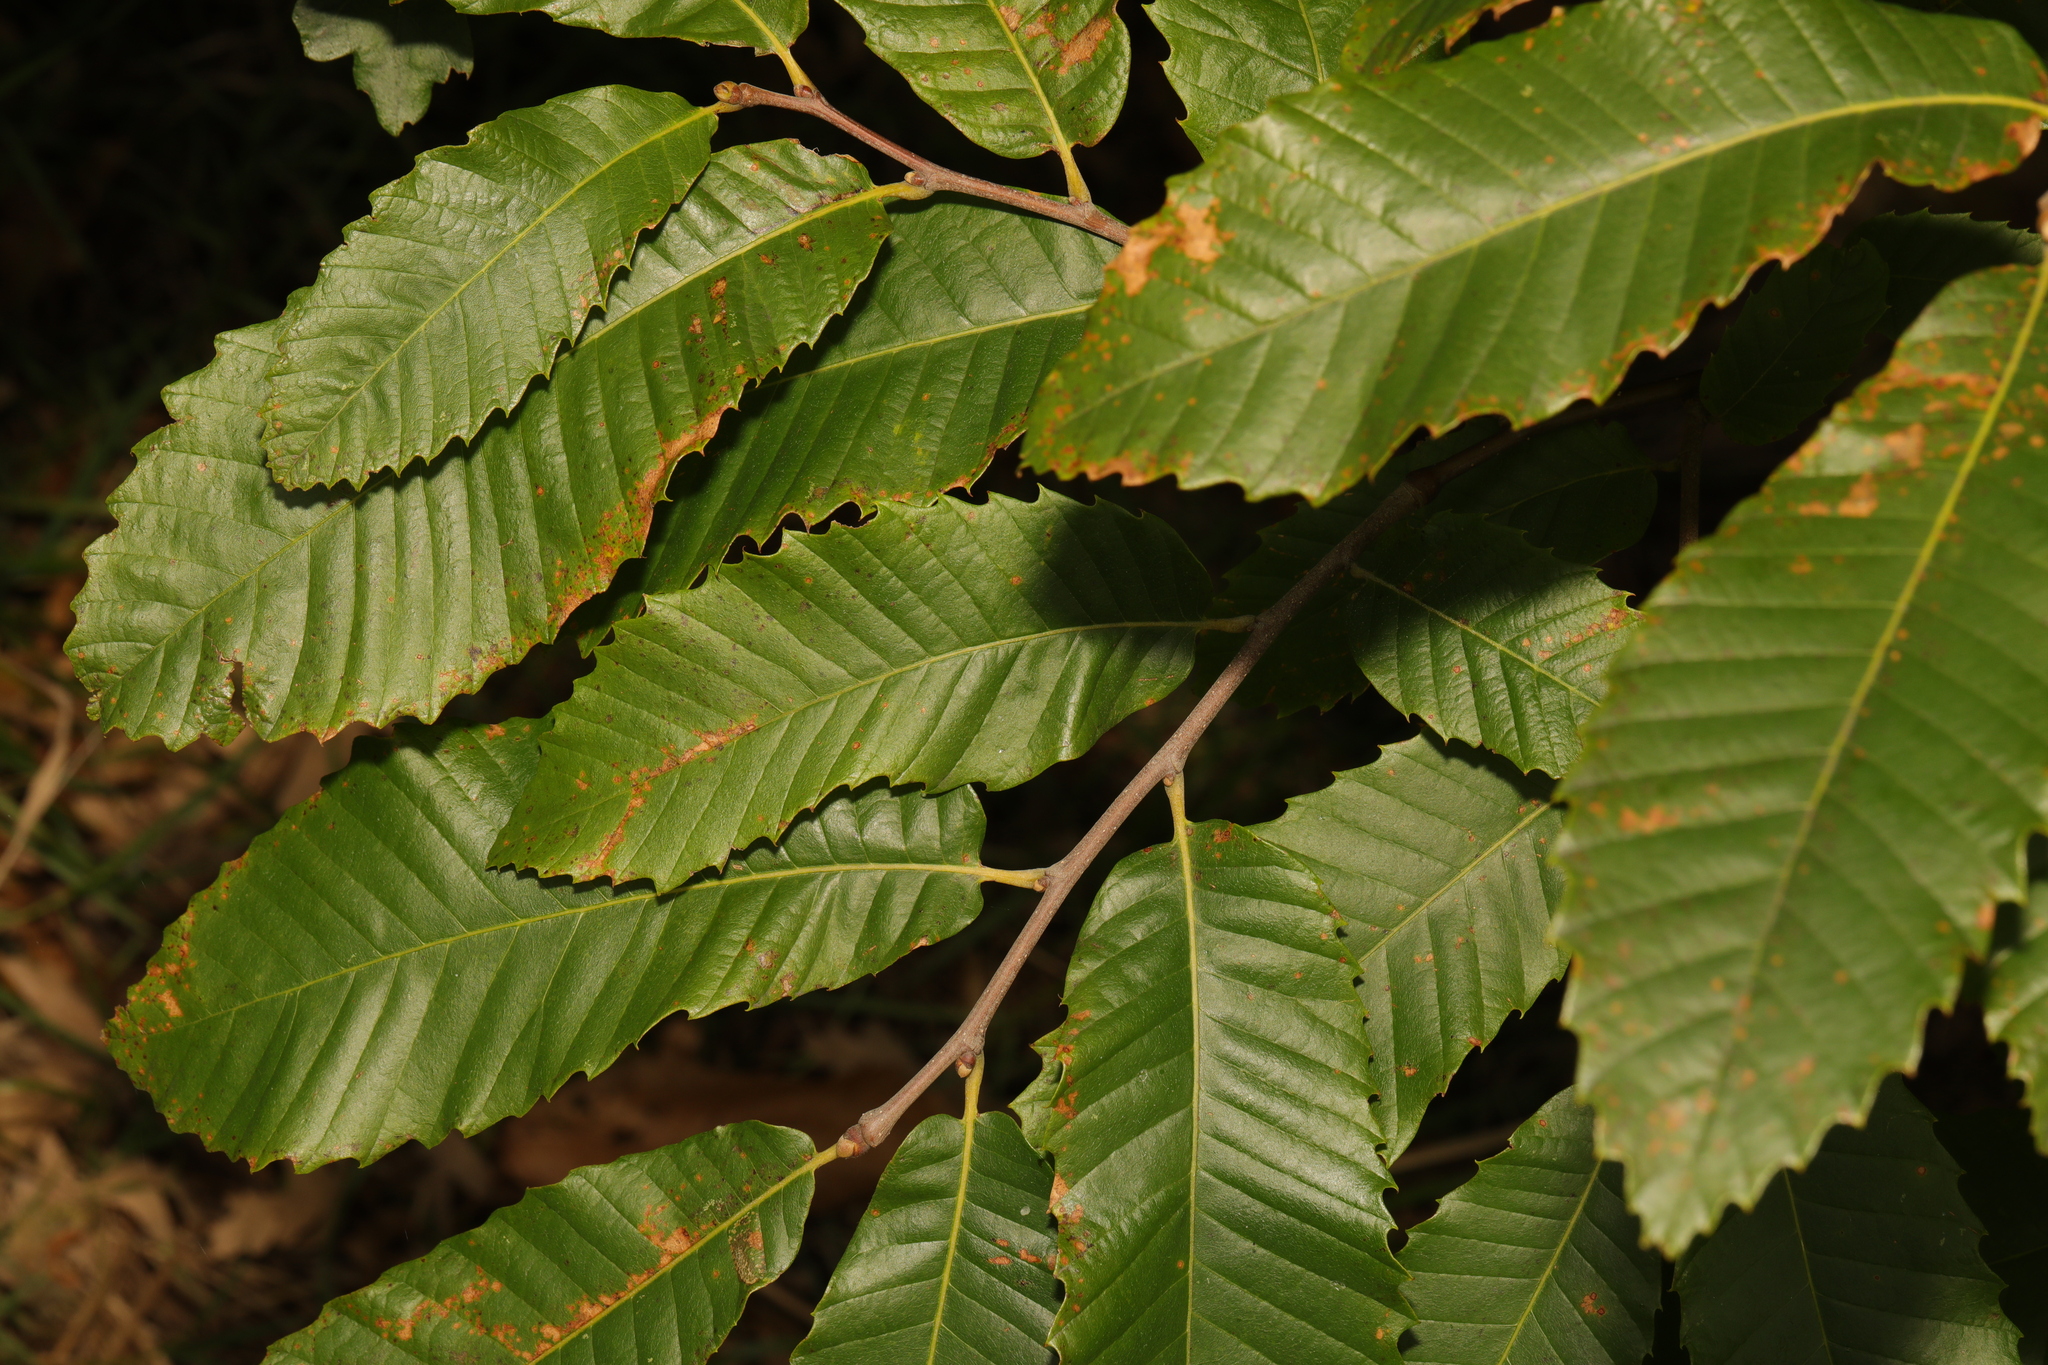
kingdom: Plantae
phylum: Tracheophyta
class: Magnoliopsida
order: Fagales
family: Fagaceae
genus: Castanea
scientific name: Castanea sativa
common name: Sweet chestnut
